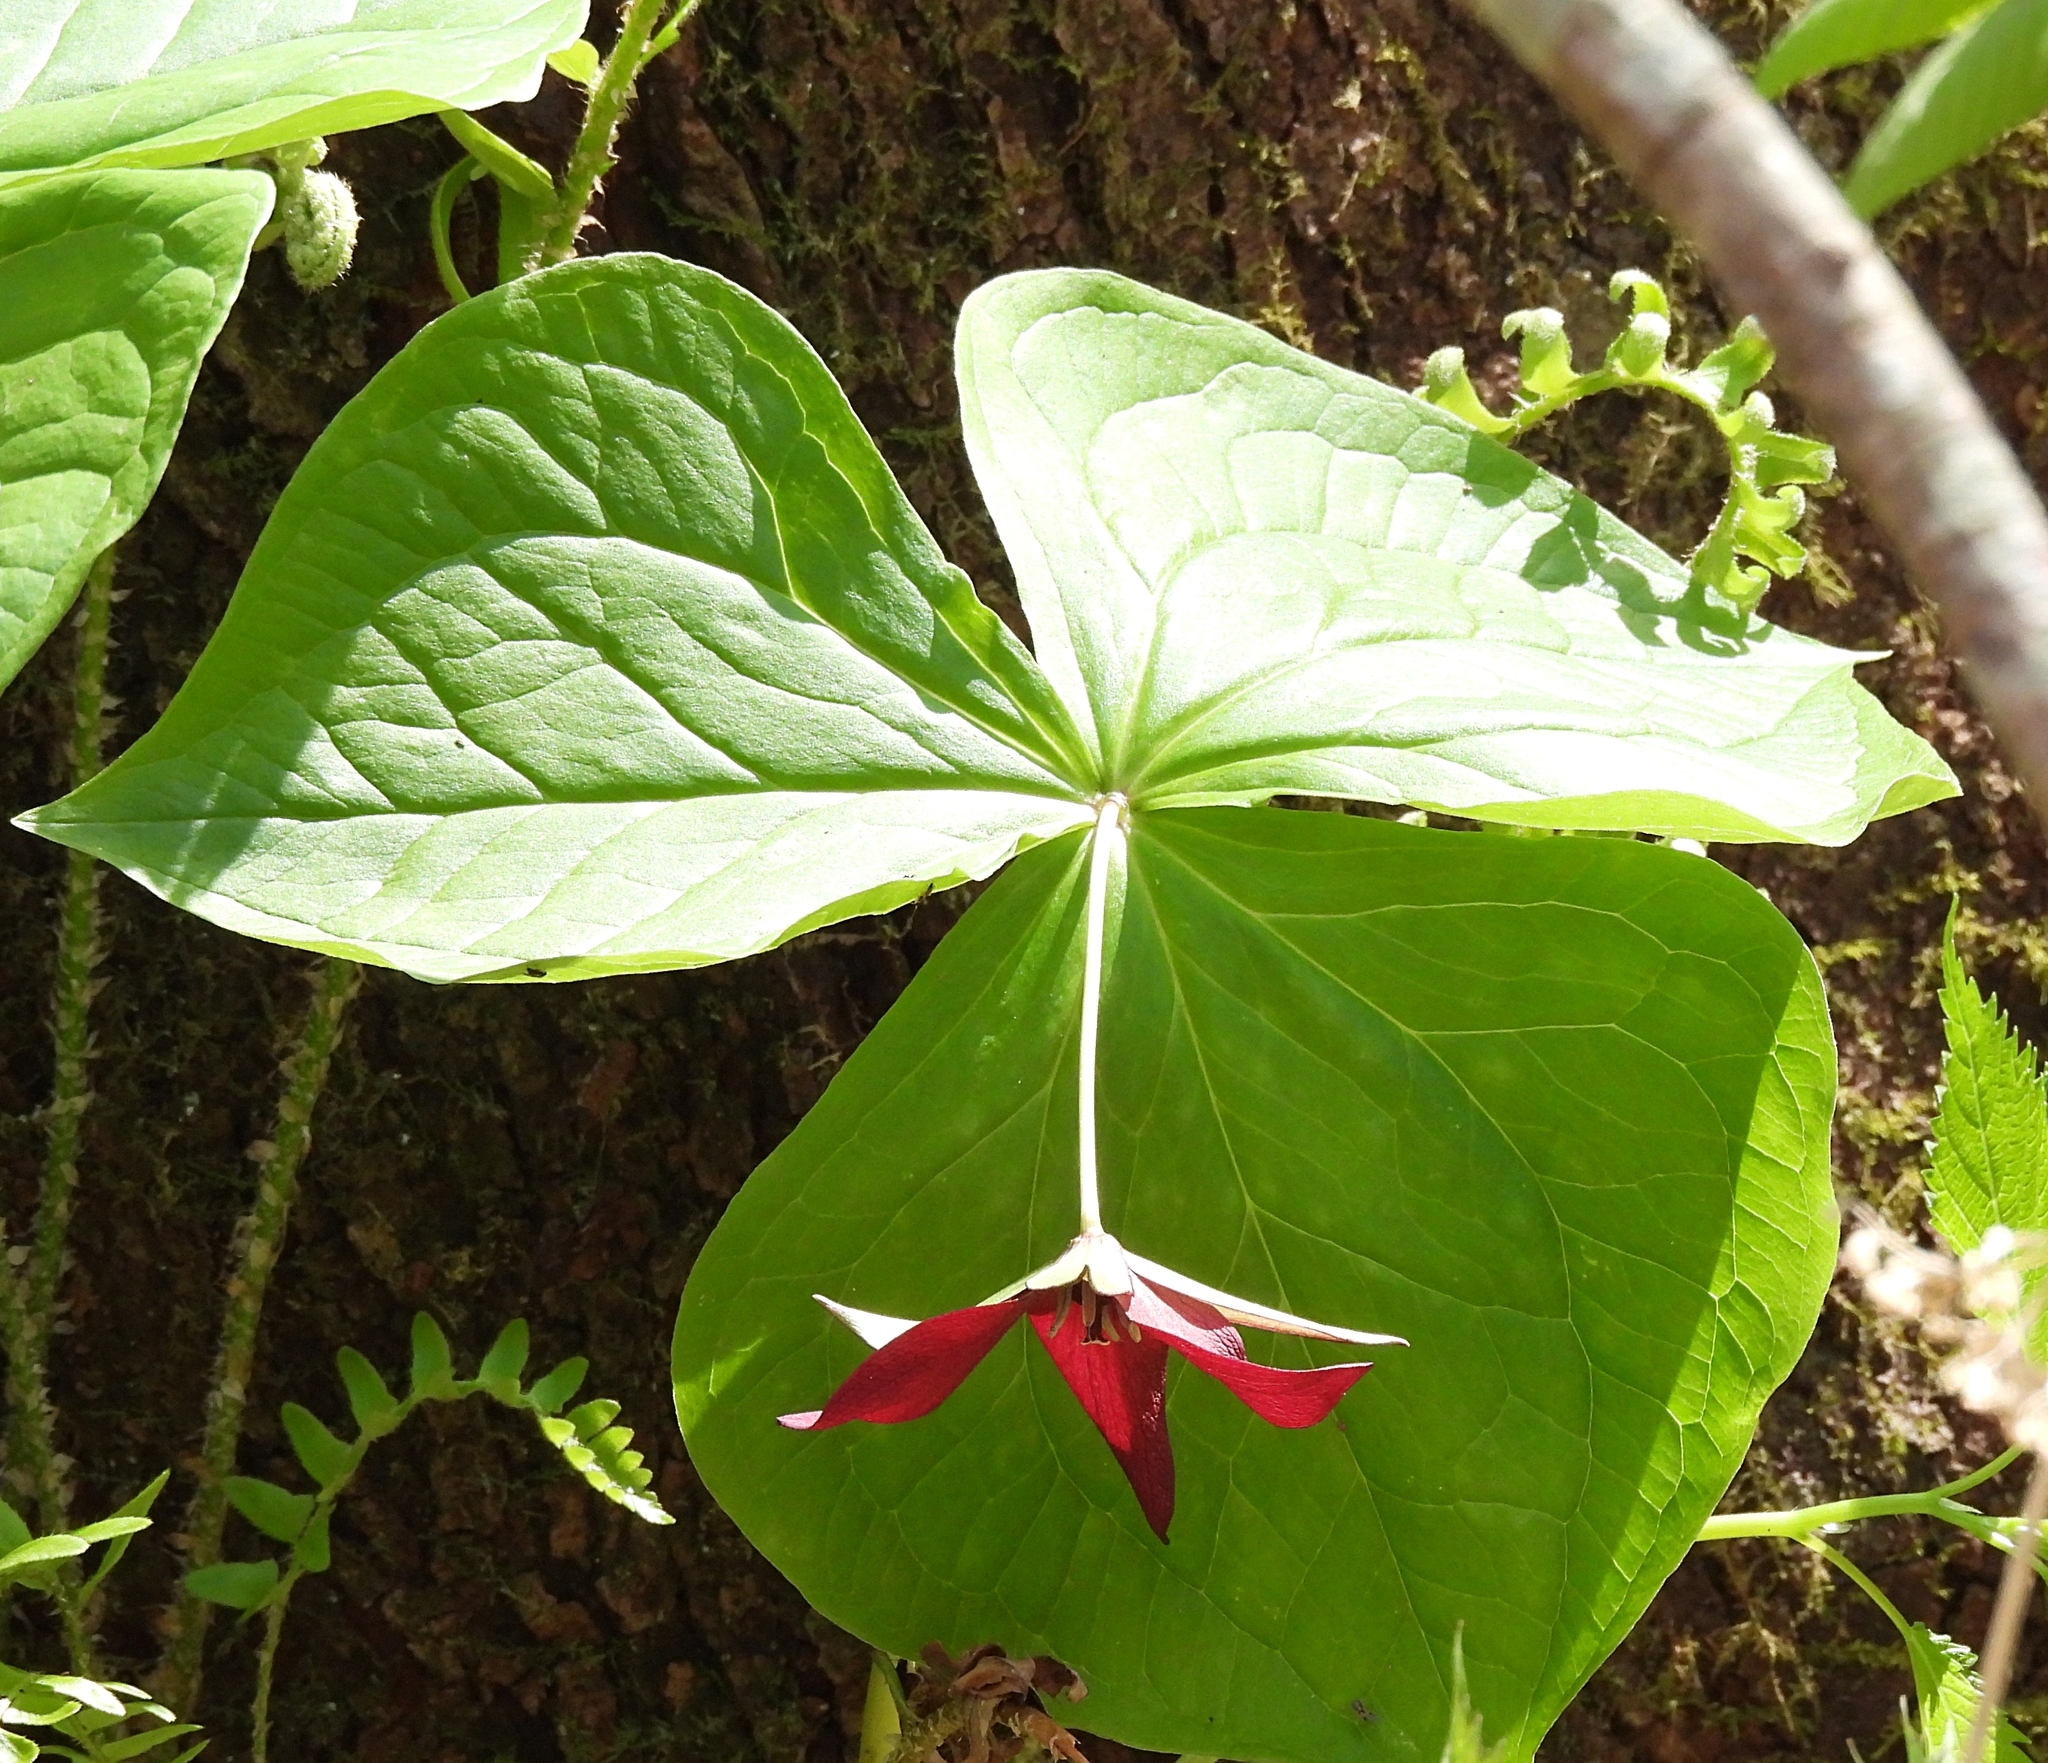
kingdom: Plantae
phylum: Tracheophyta
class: Liliopsida
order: Liliales
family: Melanthiaceae
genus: Trillium
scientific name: Trillium erectum
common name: Purple trillium
